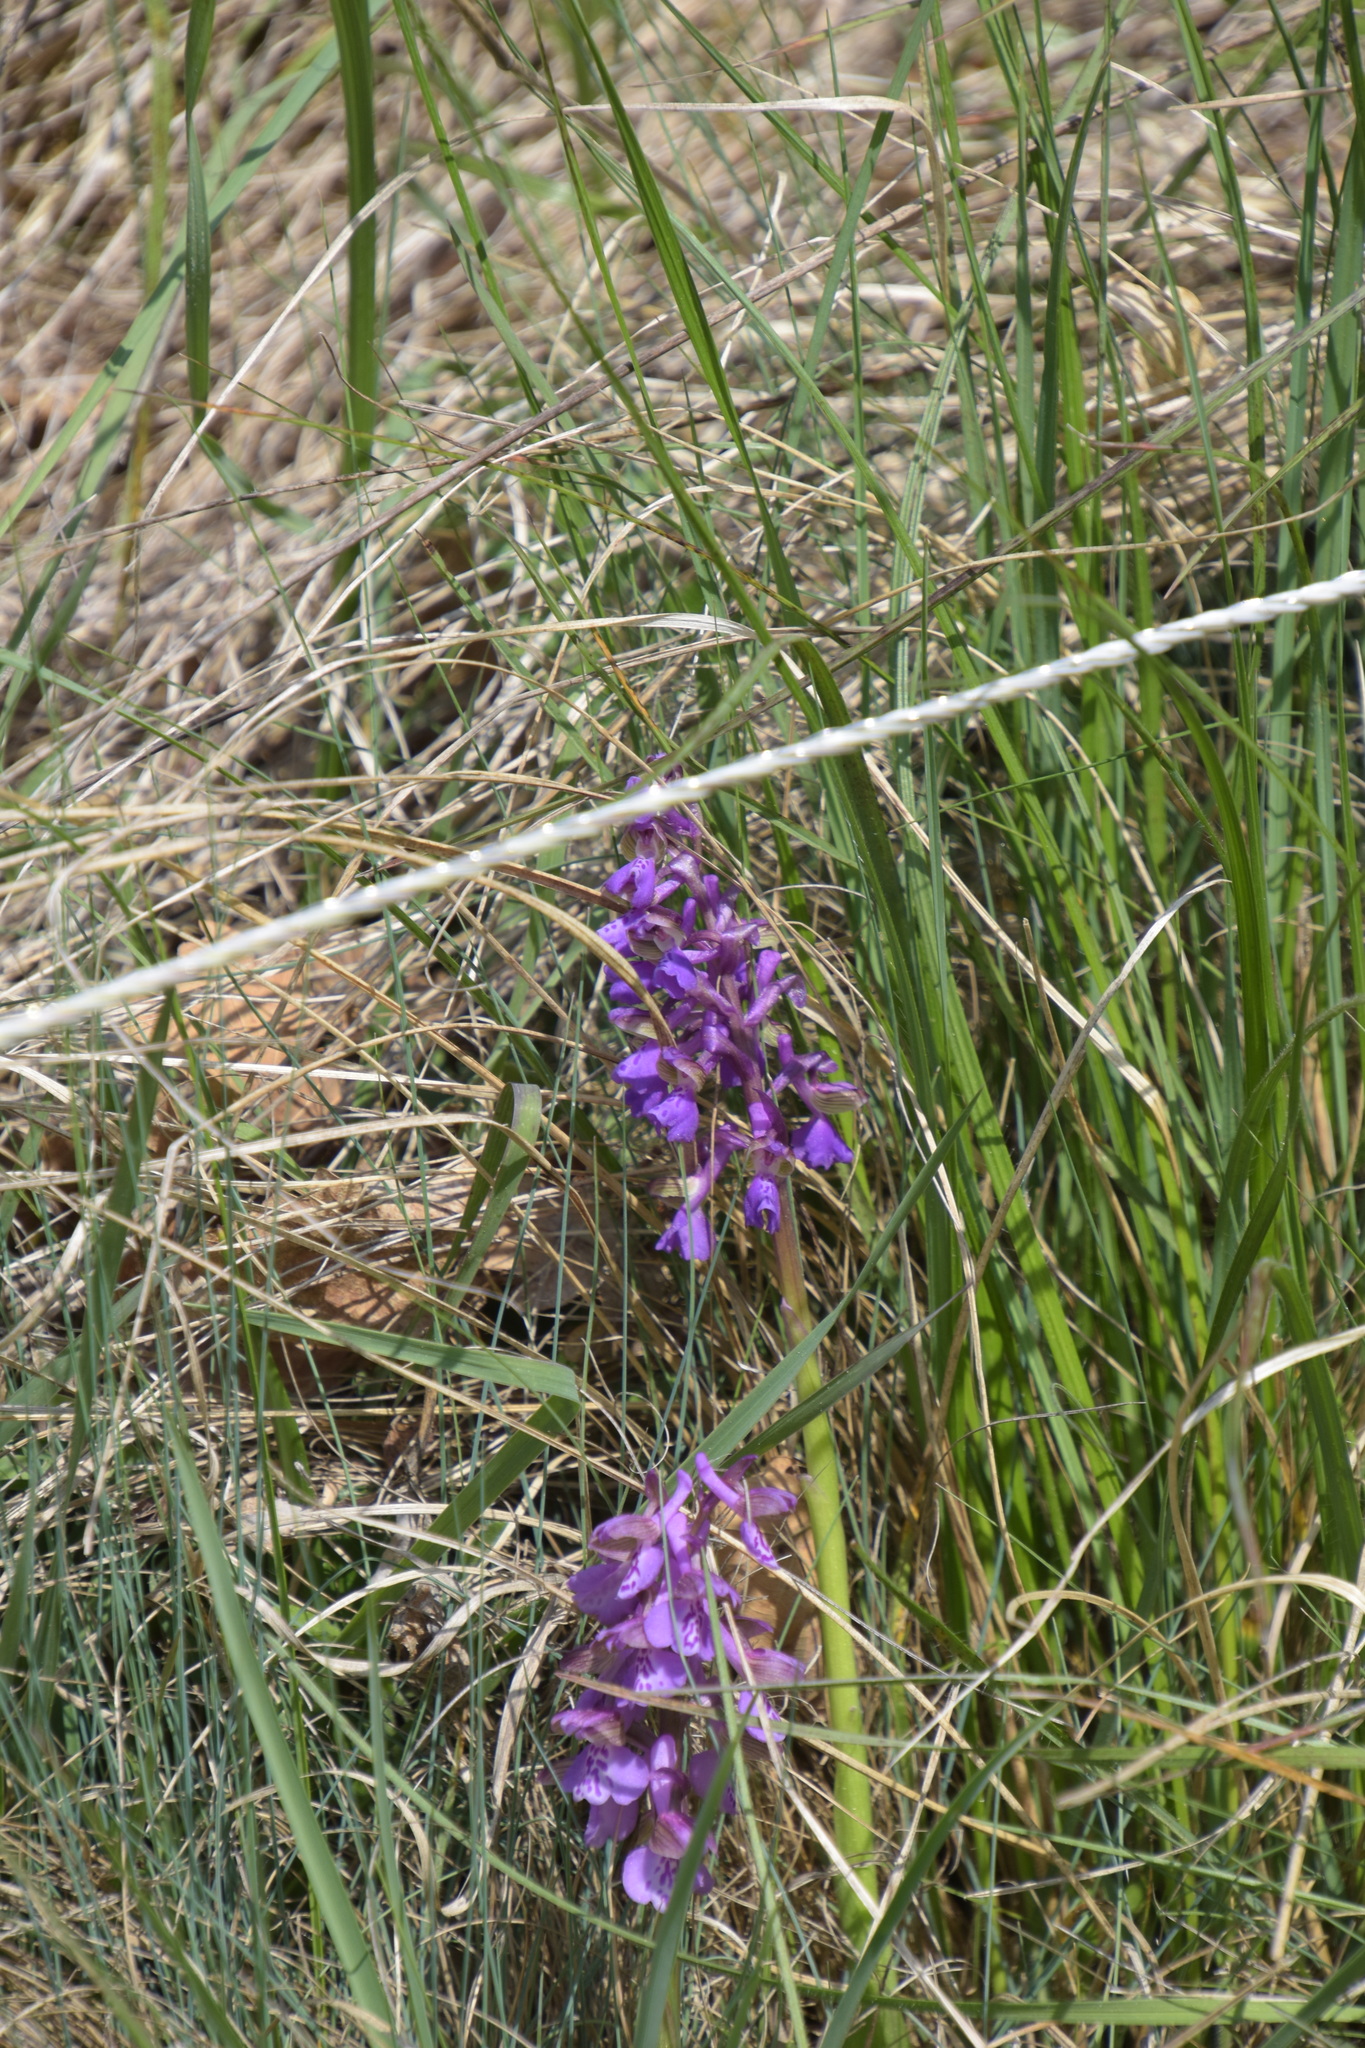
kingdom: Plantae
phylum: Tracheophyta
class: Liliopsida
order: Asparagales
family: Orchidaceae
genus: Anacamptis
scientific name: Anacamptis morio
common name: Green-winged orchid
